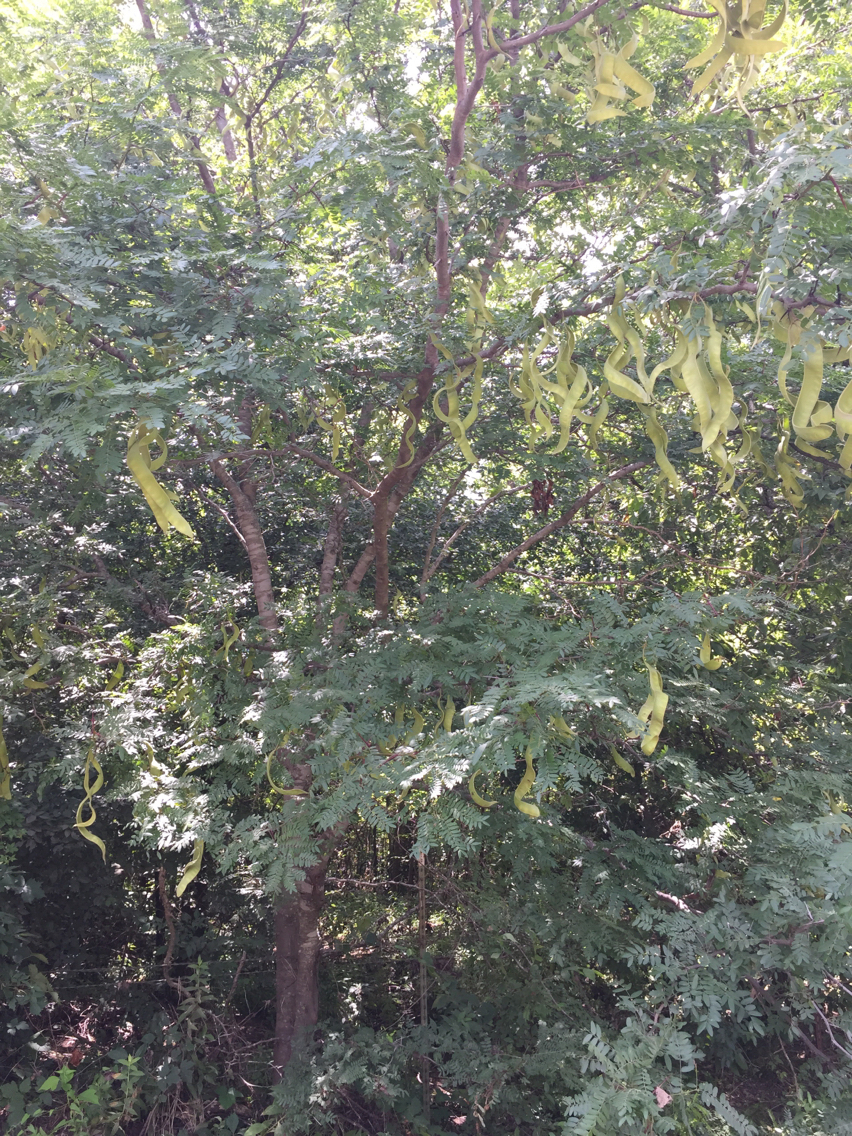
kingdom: Plantae
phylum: Tracheophyta
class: Magnoliopsida
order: Fabales
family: Fabaceae
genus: Gleditsia
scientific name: Gleditsia triacanthos
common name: Common honeylocust
